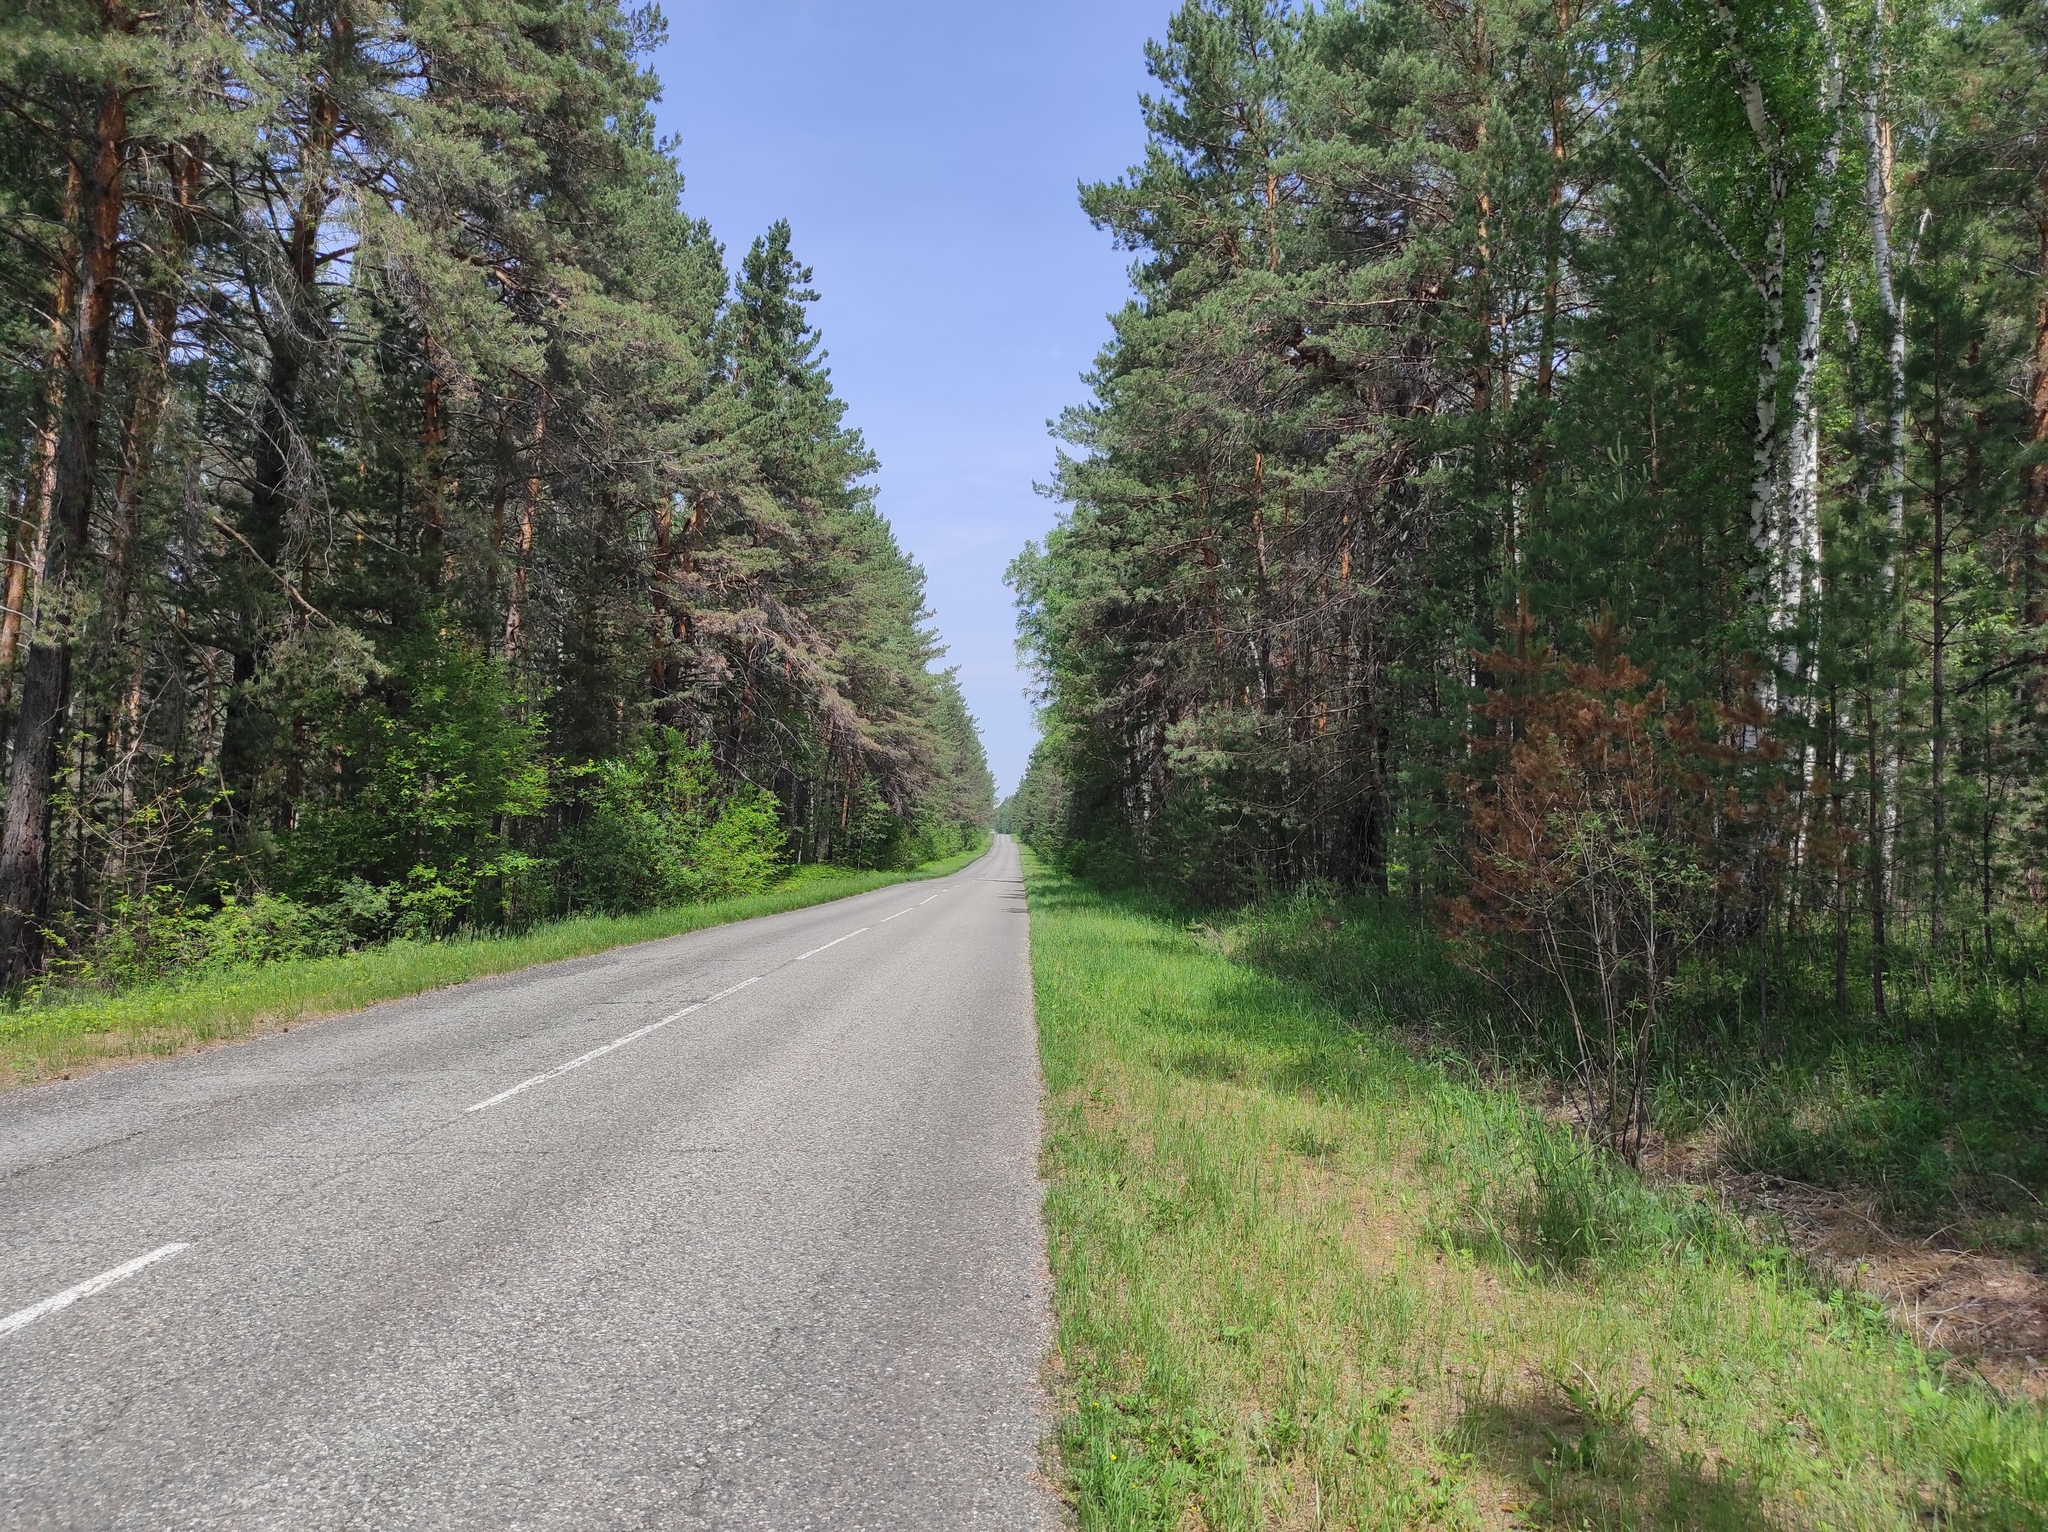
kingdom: Plantae
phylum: Tracheophyta
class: Pinopsida
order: Pinales
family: Pinaceae
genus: Pinus
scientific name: Pinus sylvestris
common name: Scots pine
